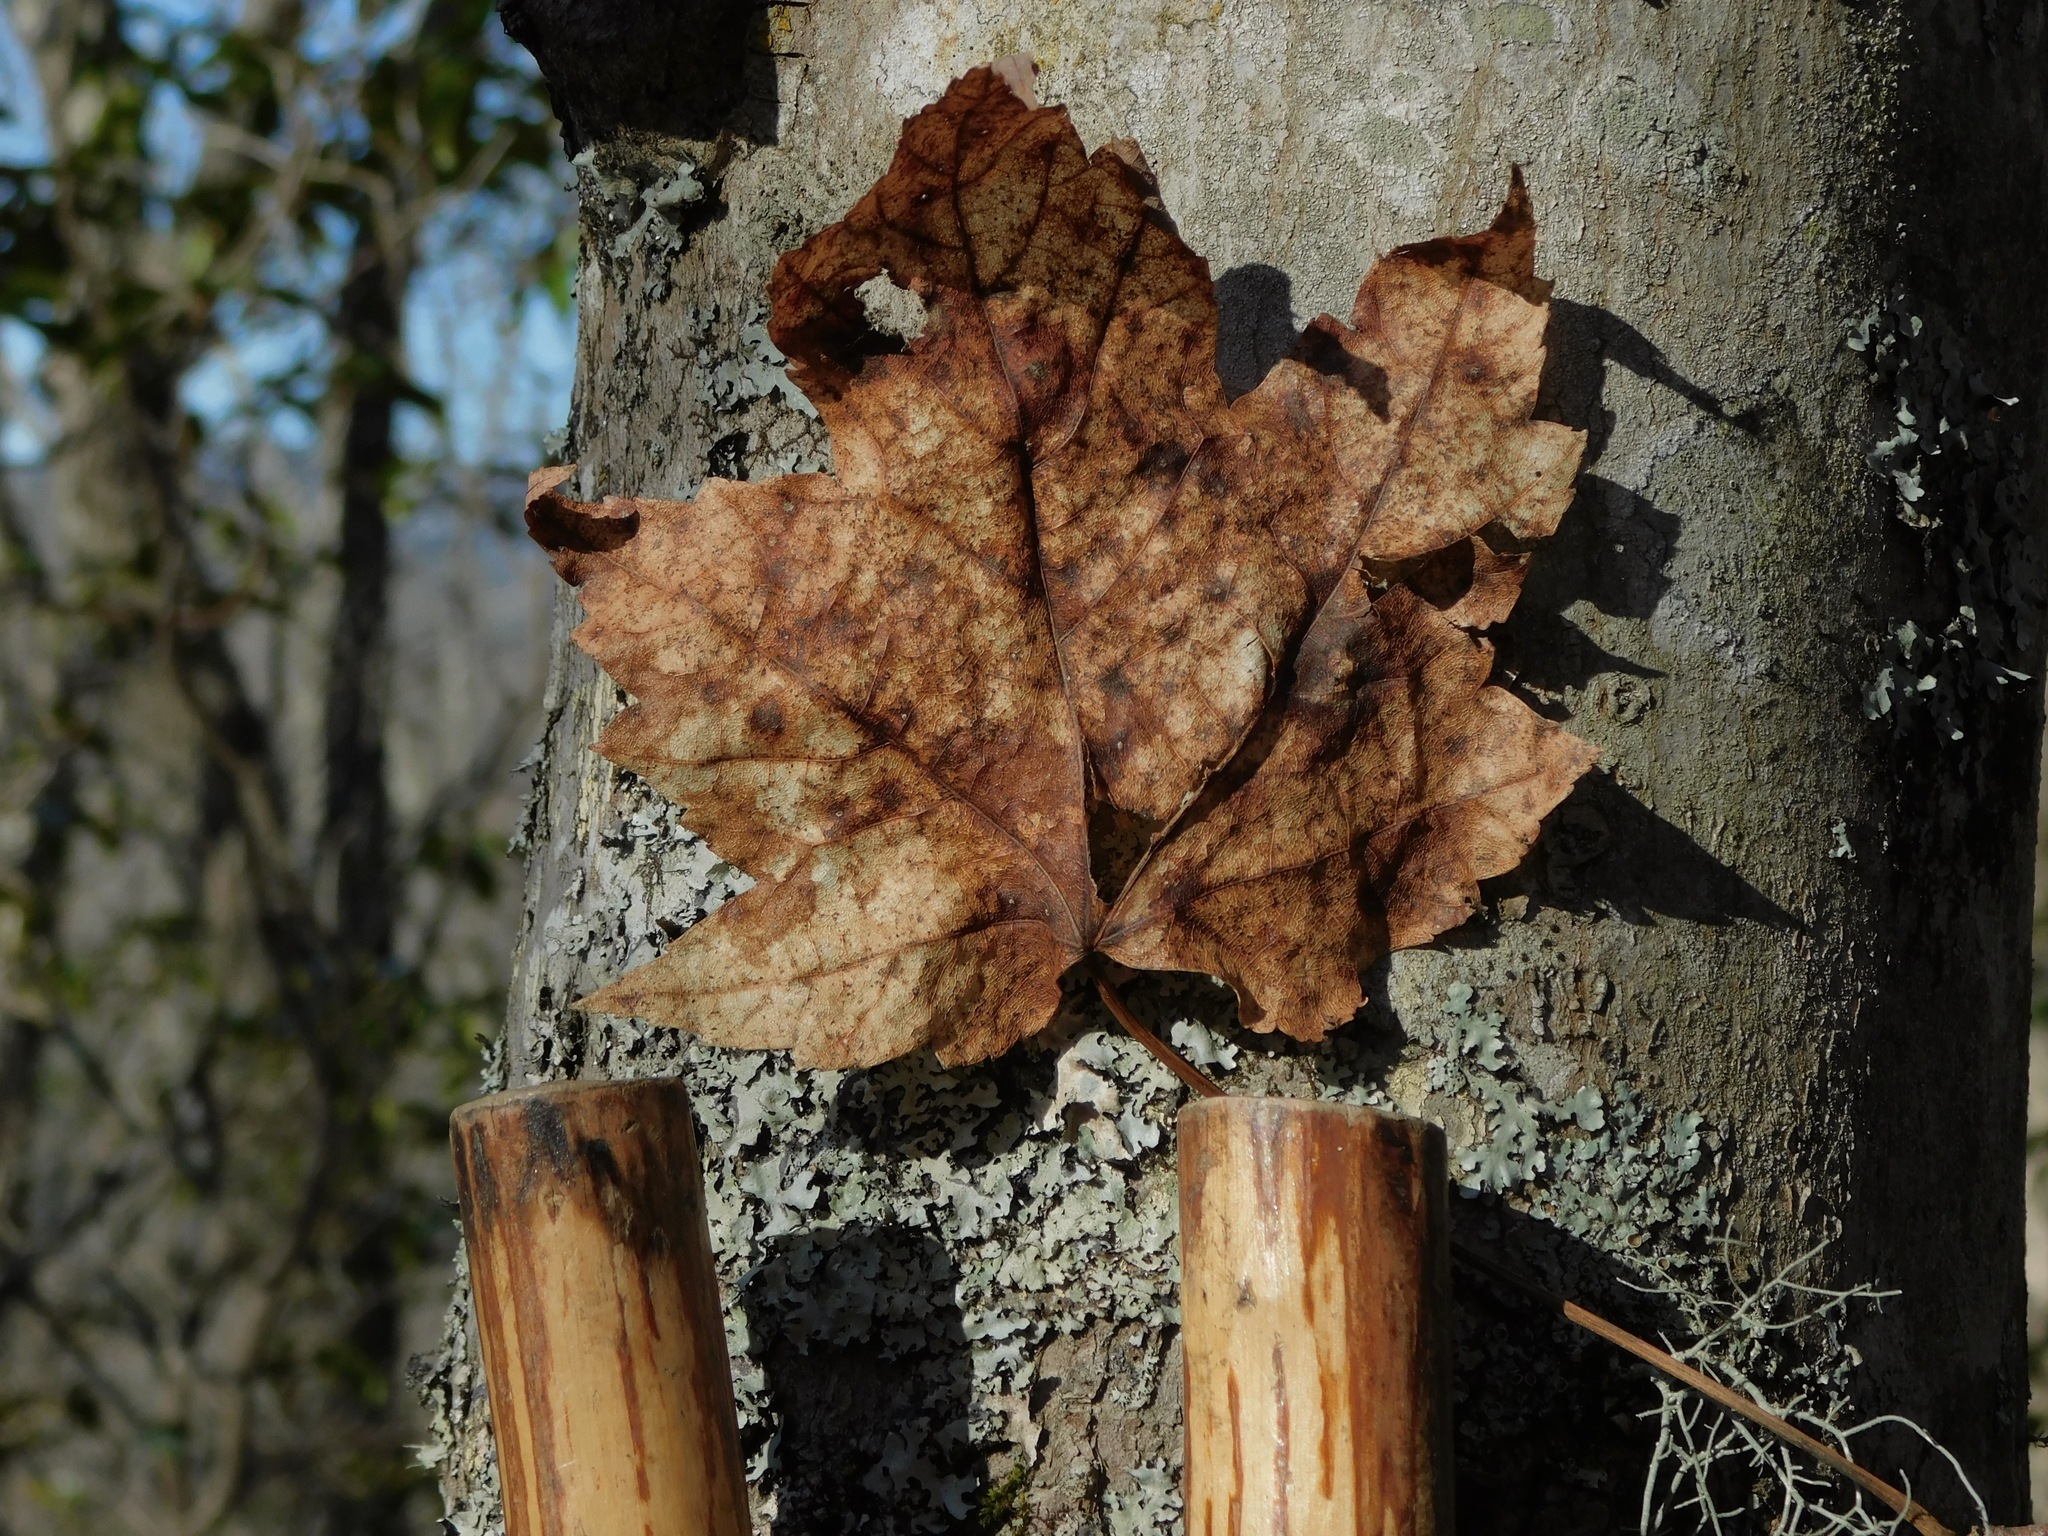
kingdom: Plantae
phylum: Tracheophyta
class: Magnoliopsida
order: Sapindales
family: Sapindaceae
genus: Acer
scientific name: Acer freemanii
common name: Freeman maple
